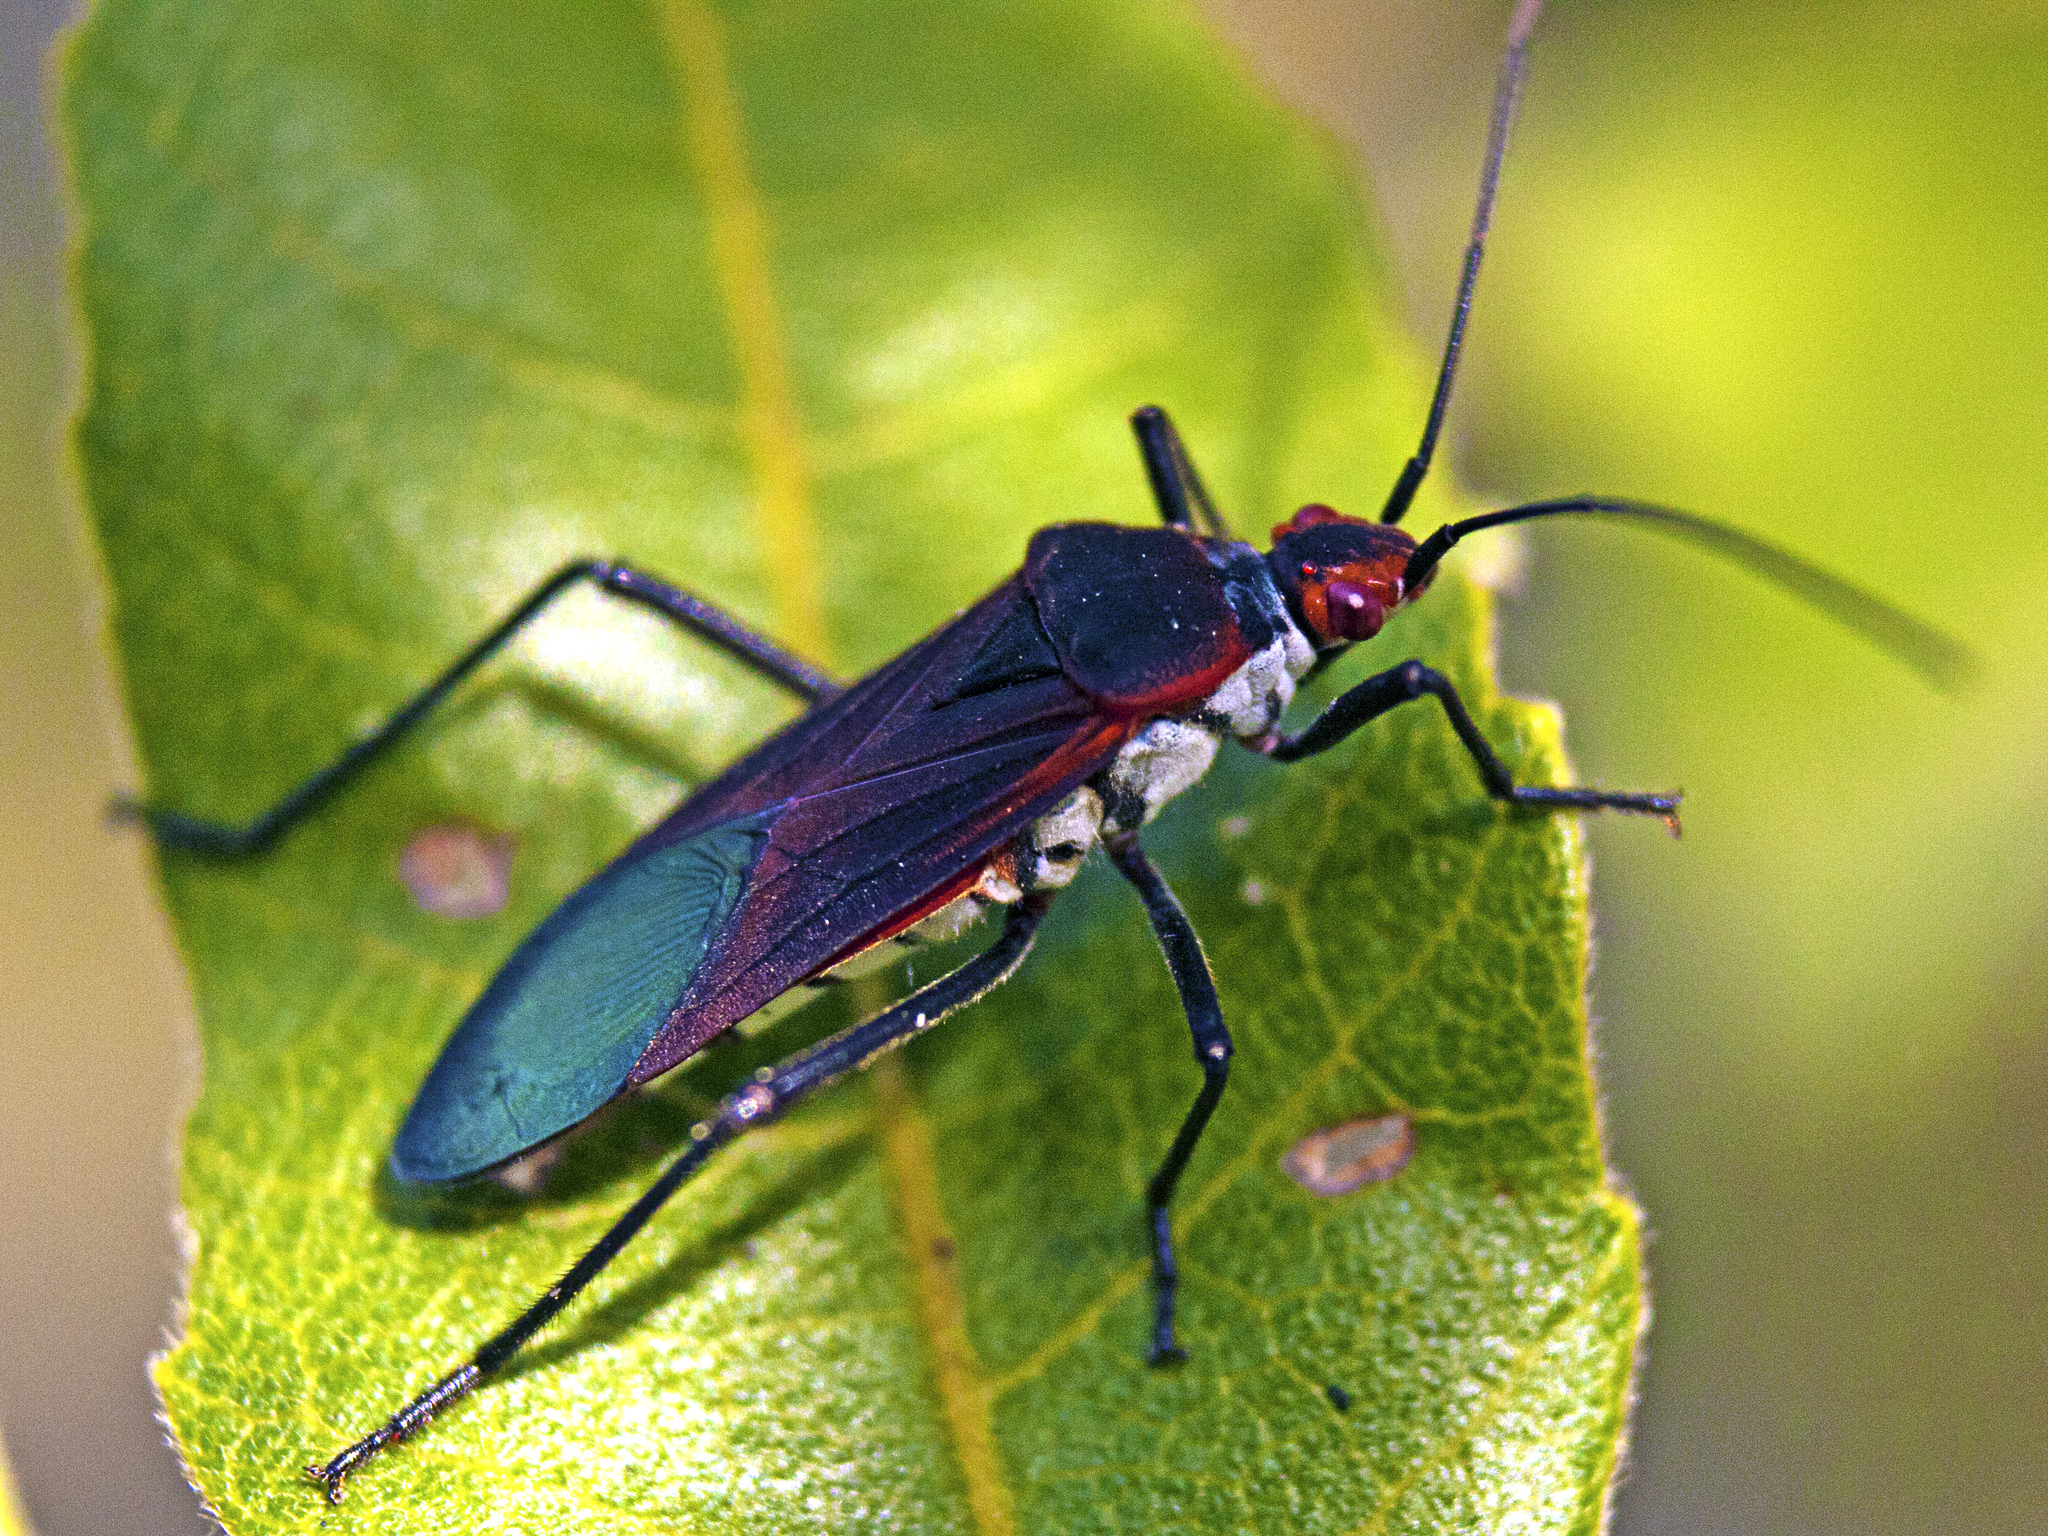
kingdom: Animalia
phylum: Arthropoda
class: Insecta
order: Hemiptera
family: Rhopalidae
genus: Leptocoris
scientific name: Leptocoris rufomarginatus
